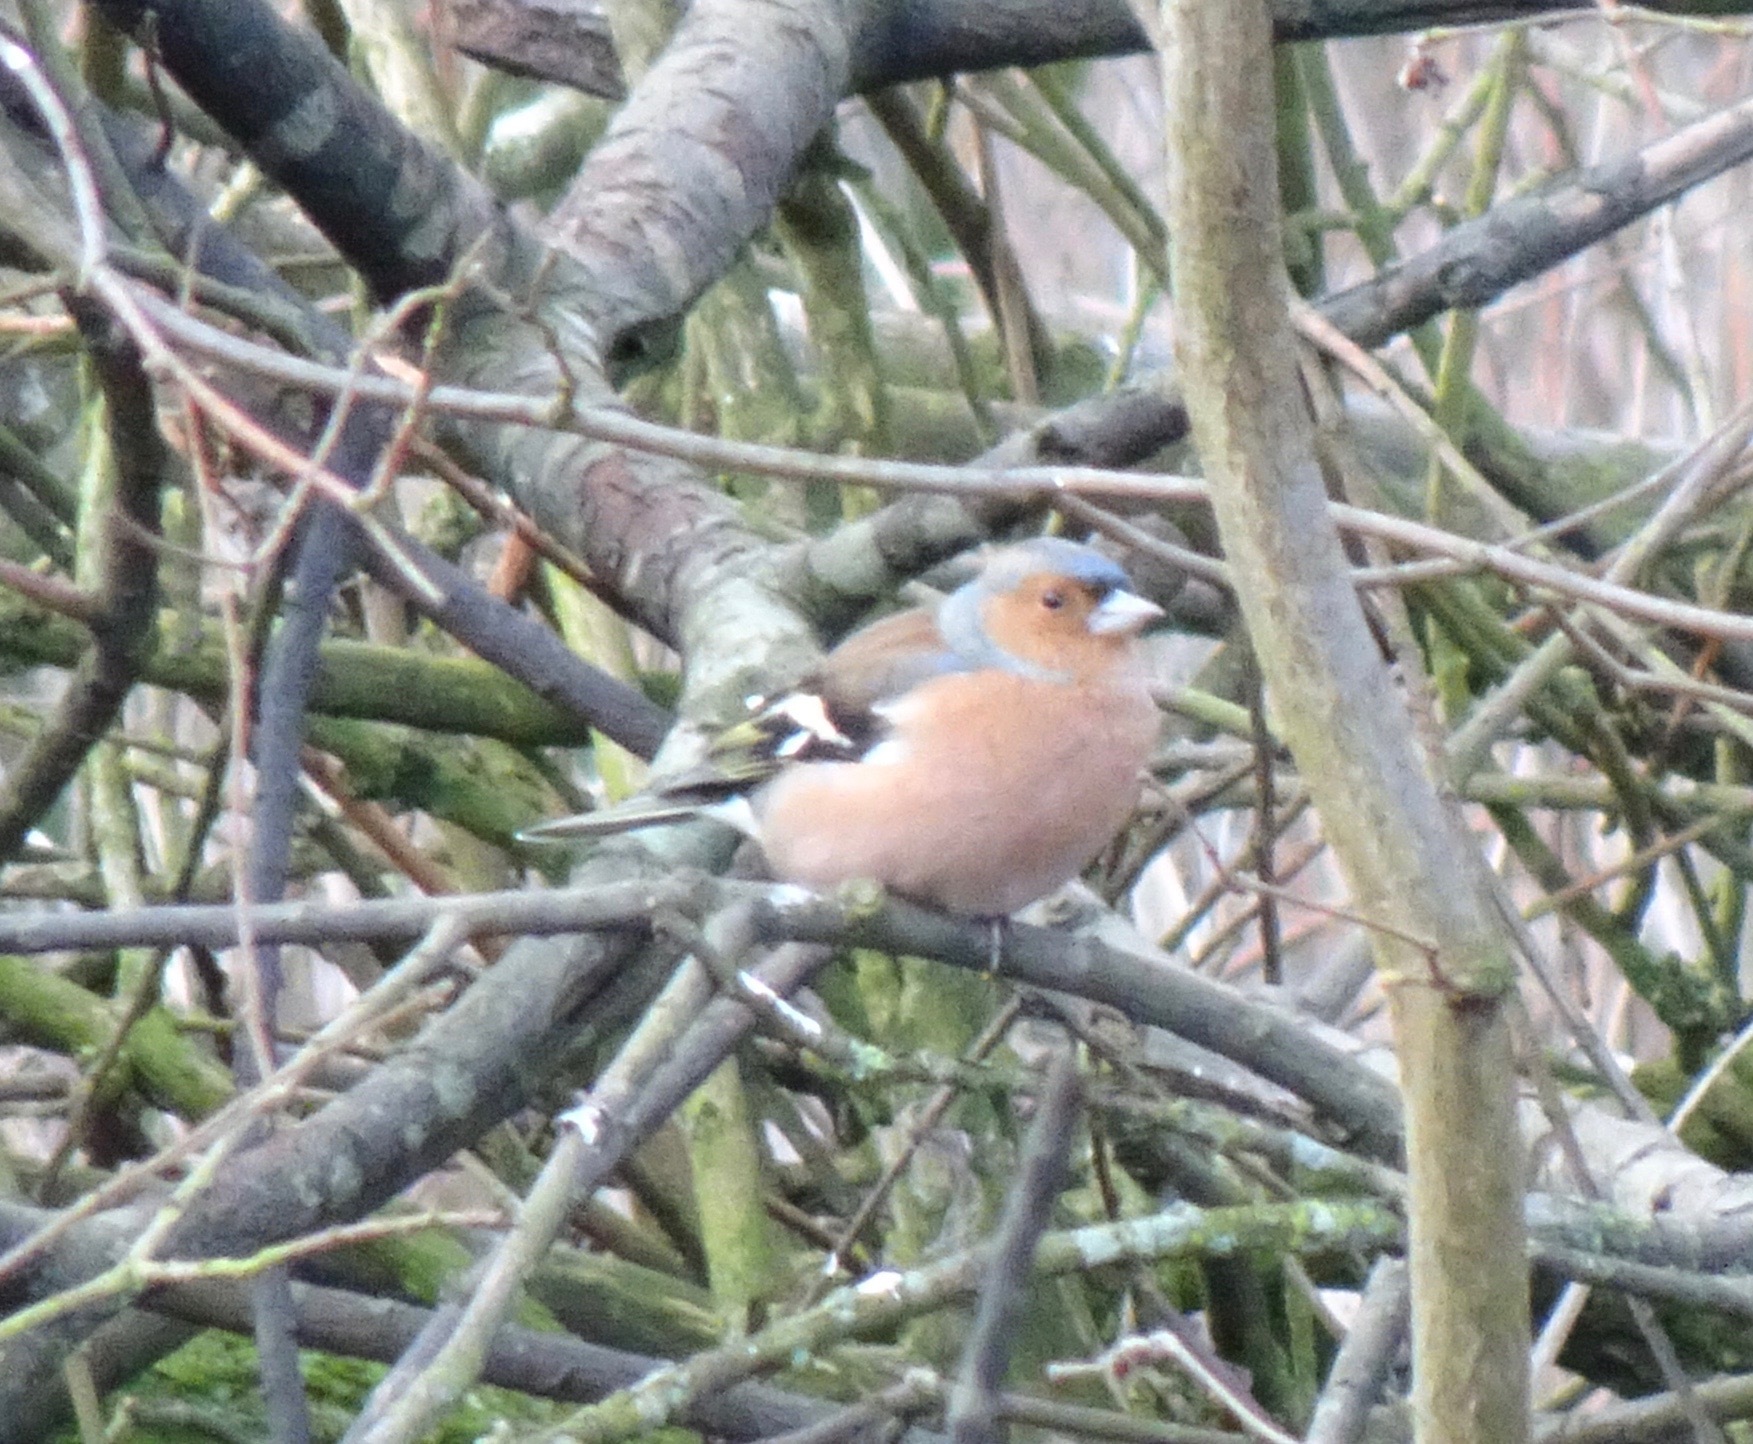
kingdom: Animalia
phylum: Chordata
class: Aves
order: Passeriformes
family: Fringillidae
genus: Fringilla
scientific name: Fringilla coelebs
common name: Common chaffinch
